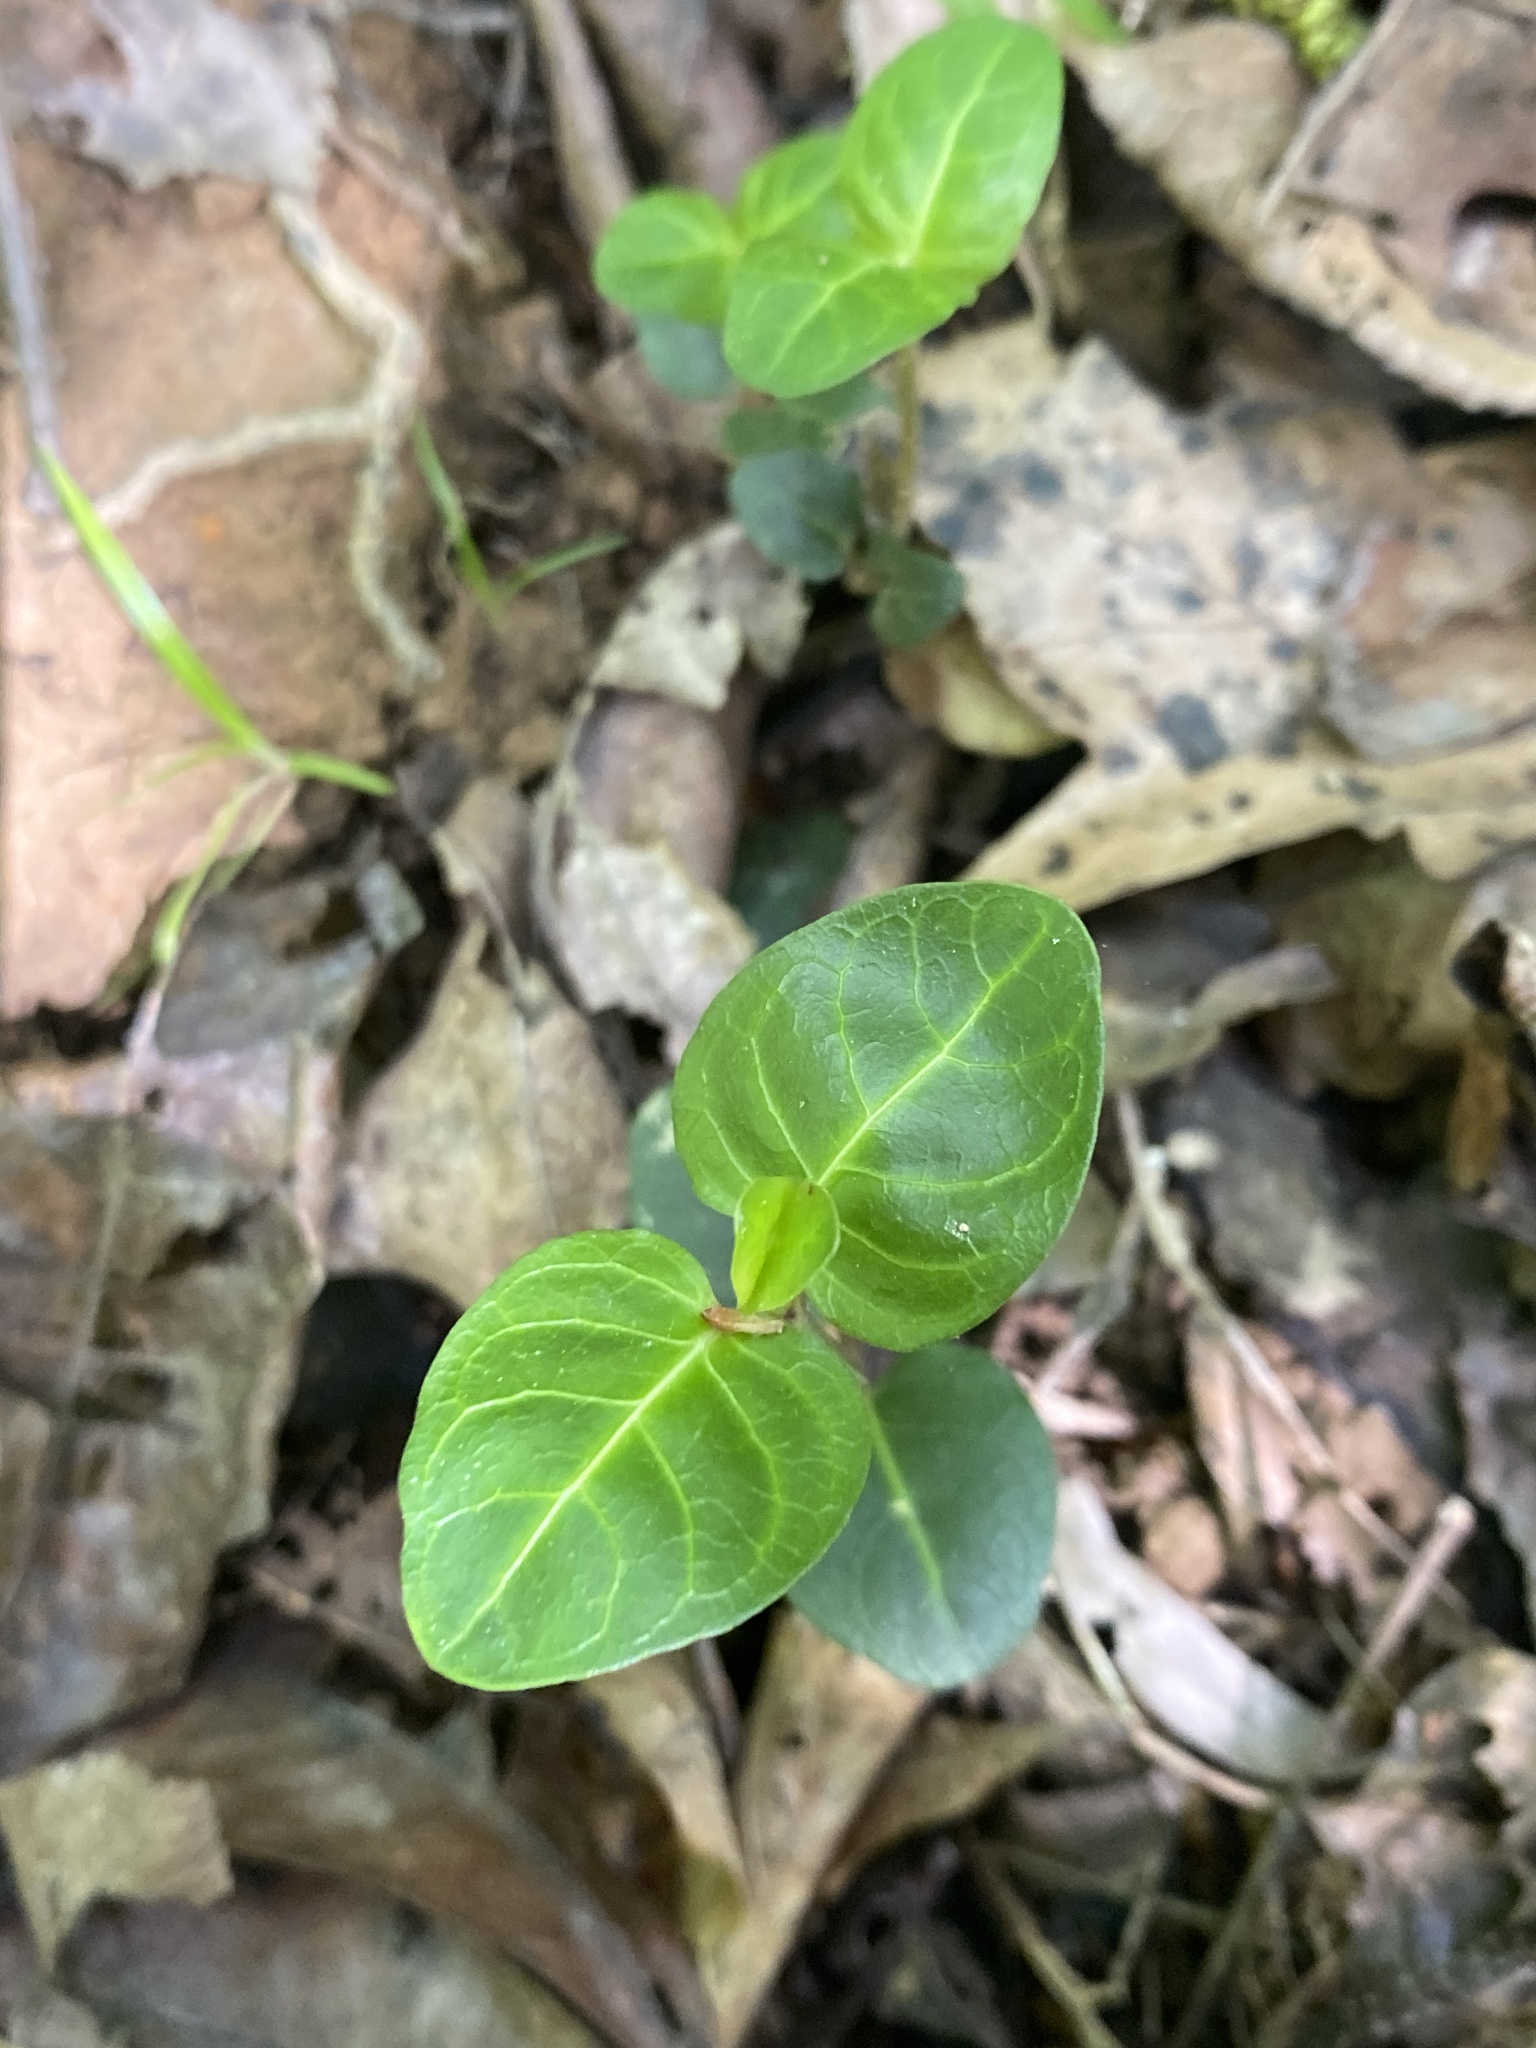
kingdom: Plantae
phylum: Tracheophyta
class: Magnoliopsida
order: Gentianales
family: Rubiaceae
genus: Mitchella
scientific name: Mitchella repens
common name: Partridge-berry
